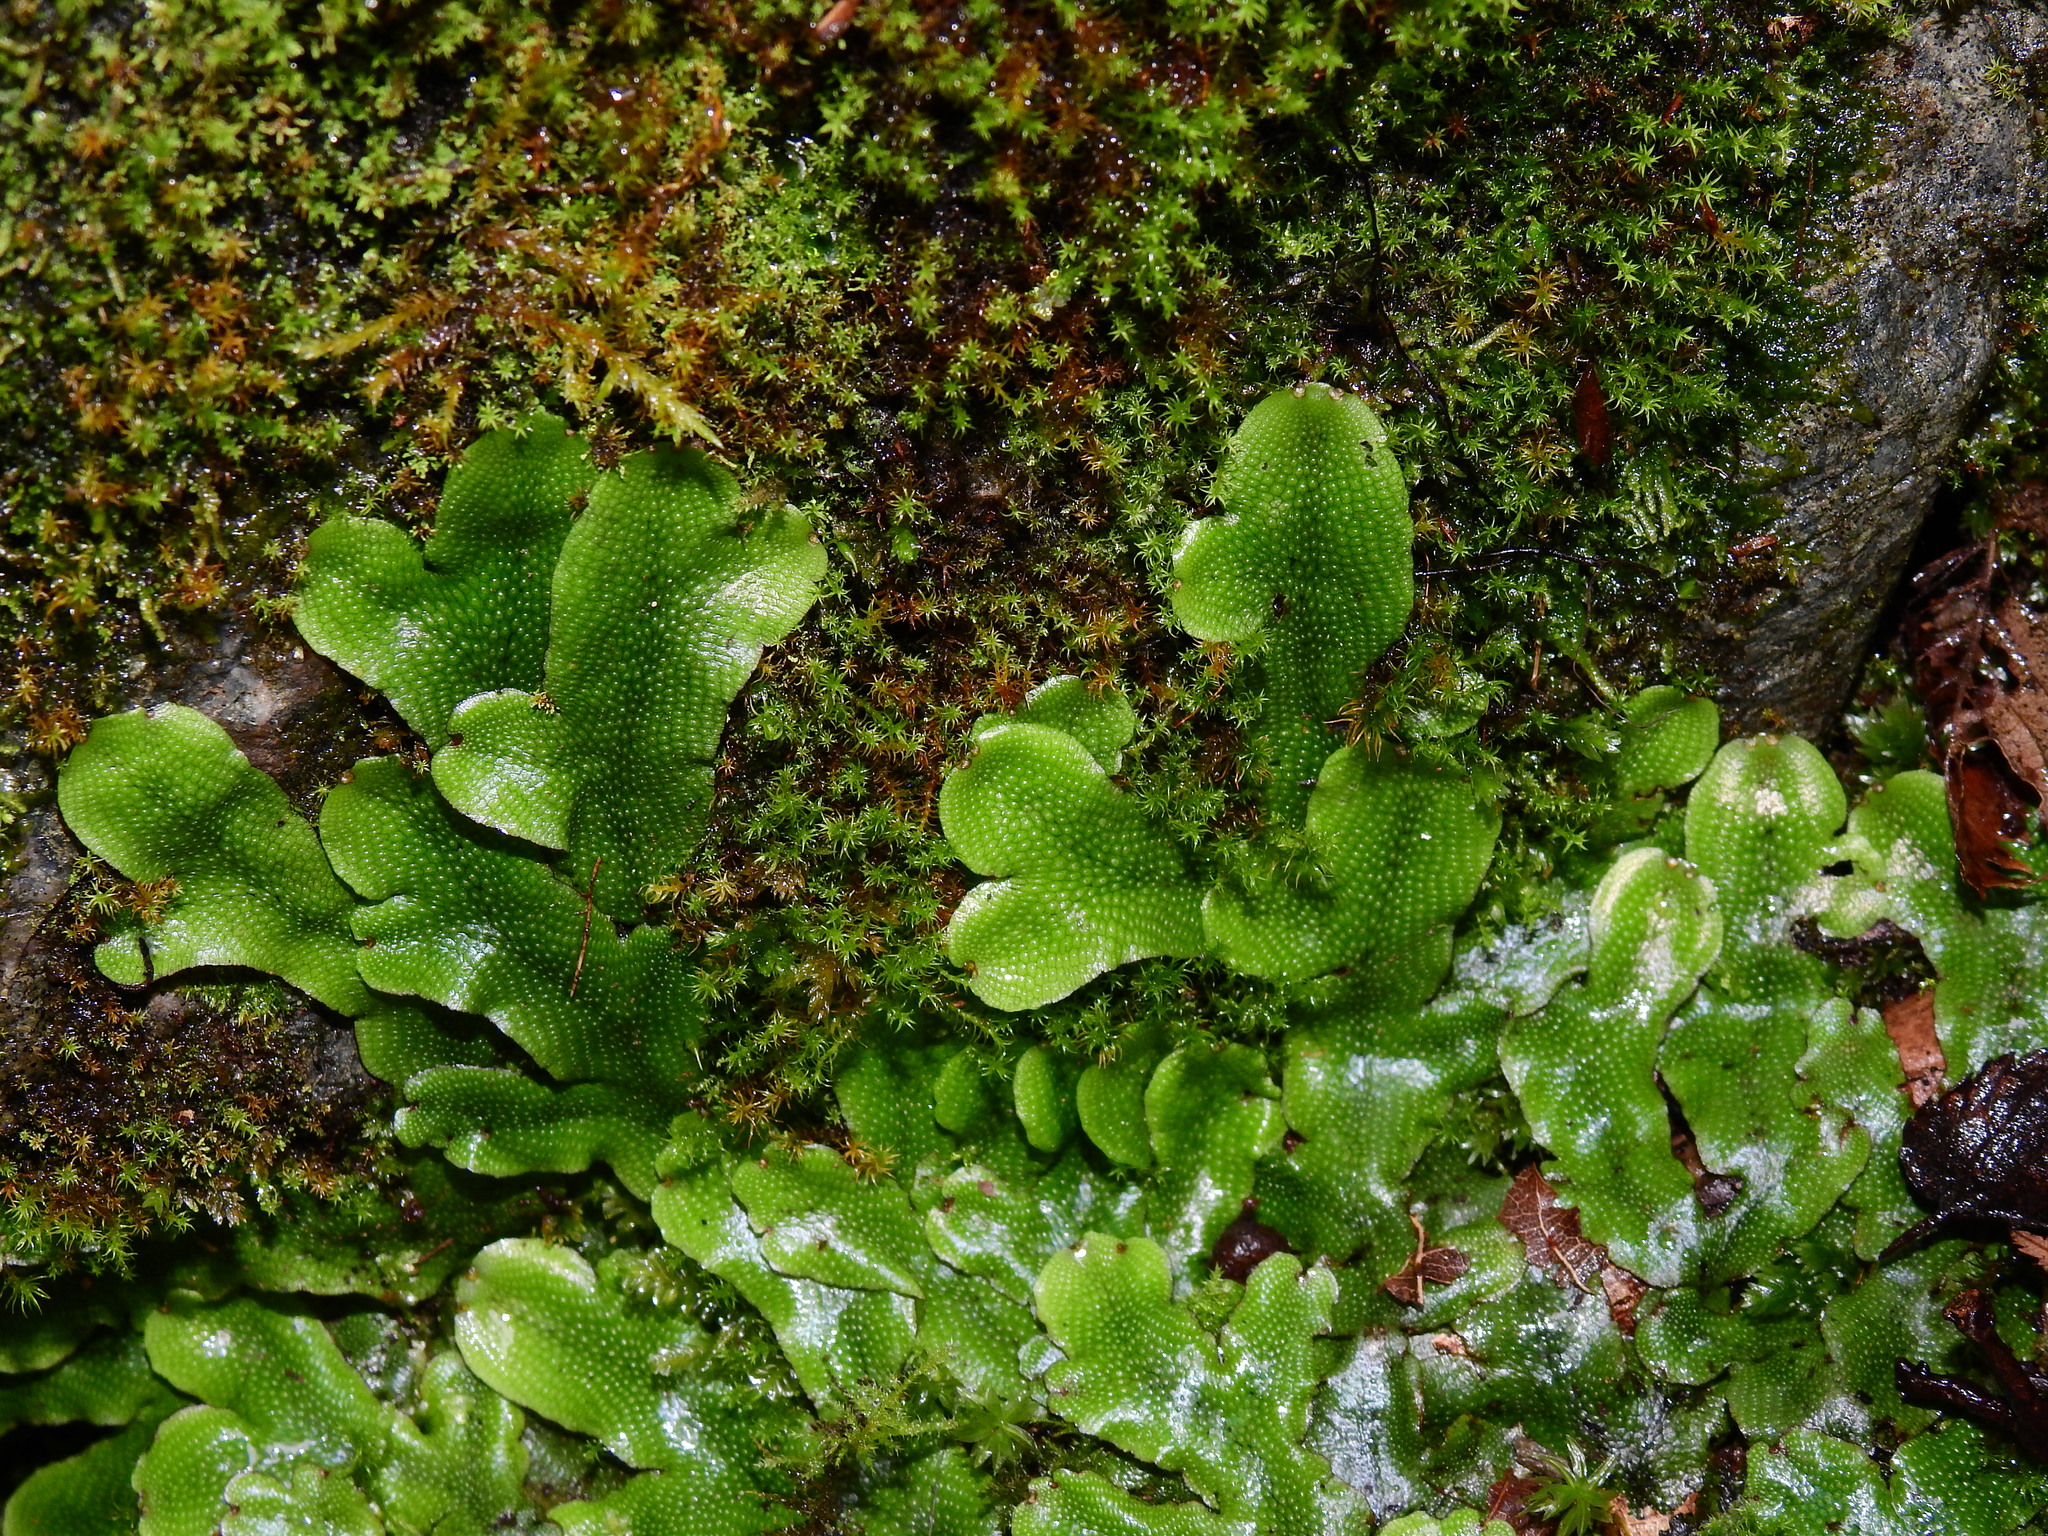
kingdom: Plantae
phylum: Marchantiophyta
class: Marchantiopsida
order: Marchantiales
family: Conocephalaceae
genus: Conocephalum
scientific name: Conocephalum conicum
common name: Great scented liverwort
